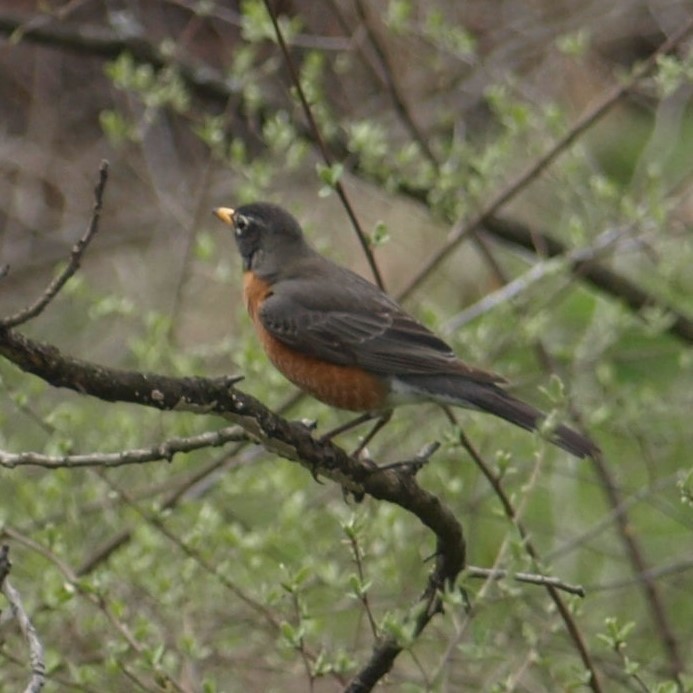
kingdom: Animalia
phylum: Chordata
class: Aves
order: Passeriformes
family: Turdidae
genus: Turdus
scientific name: Turdus migratorius
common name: American robin
